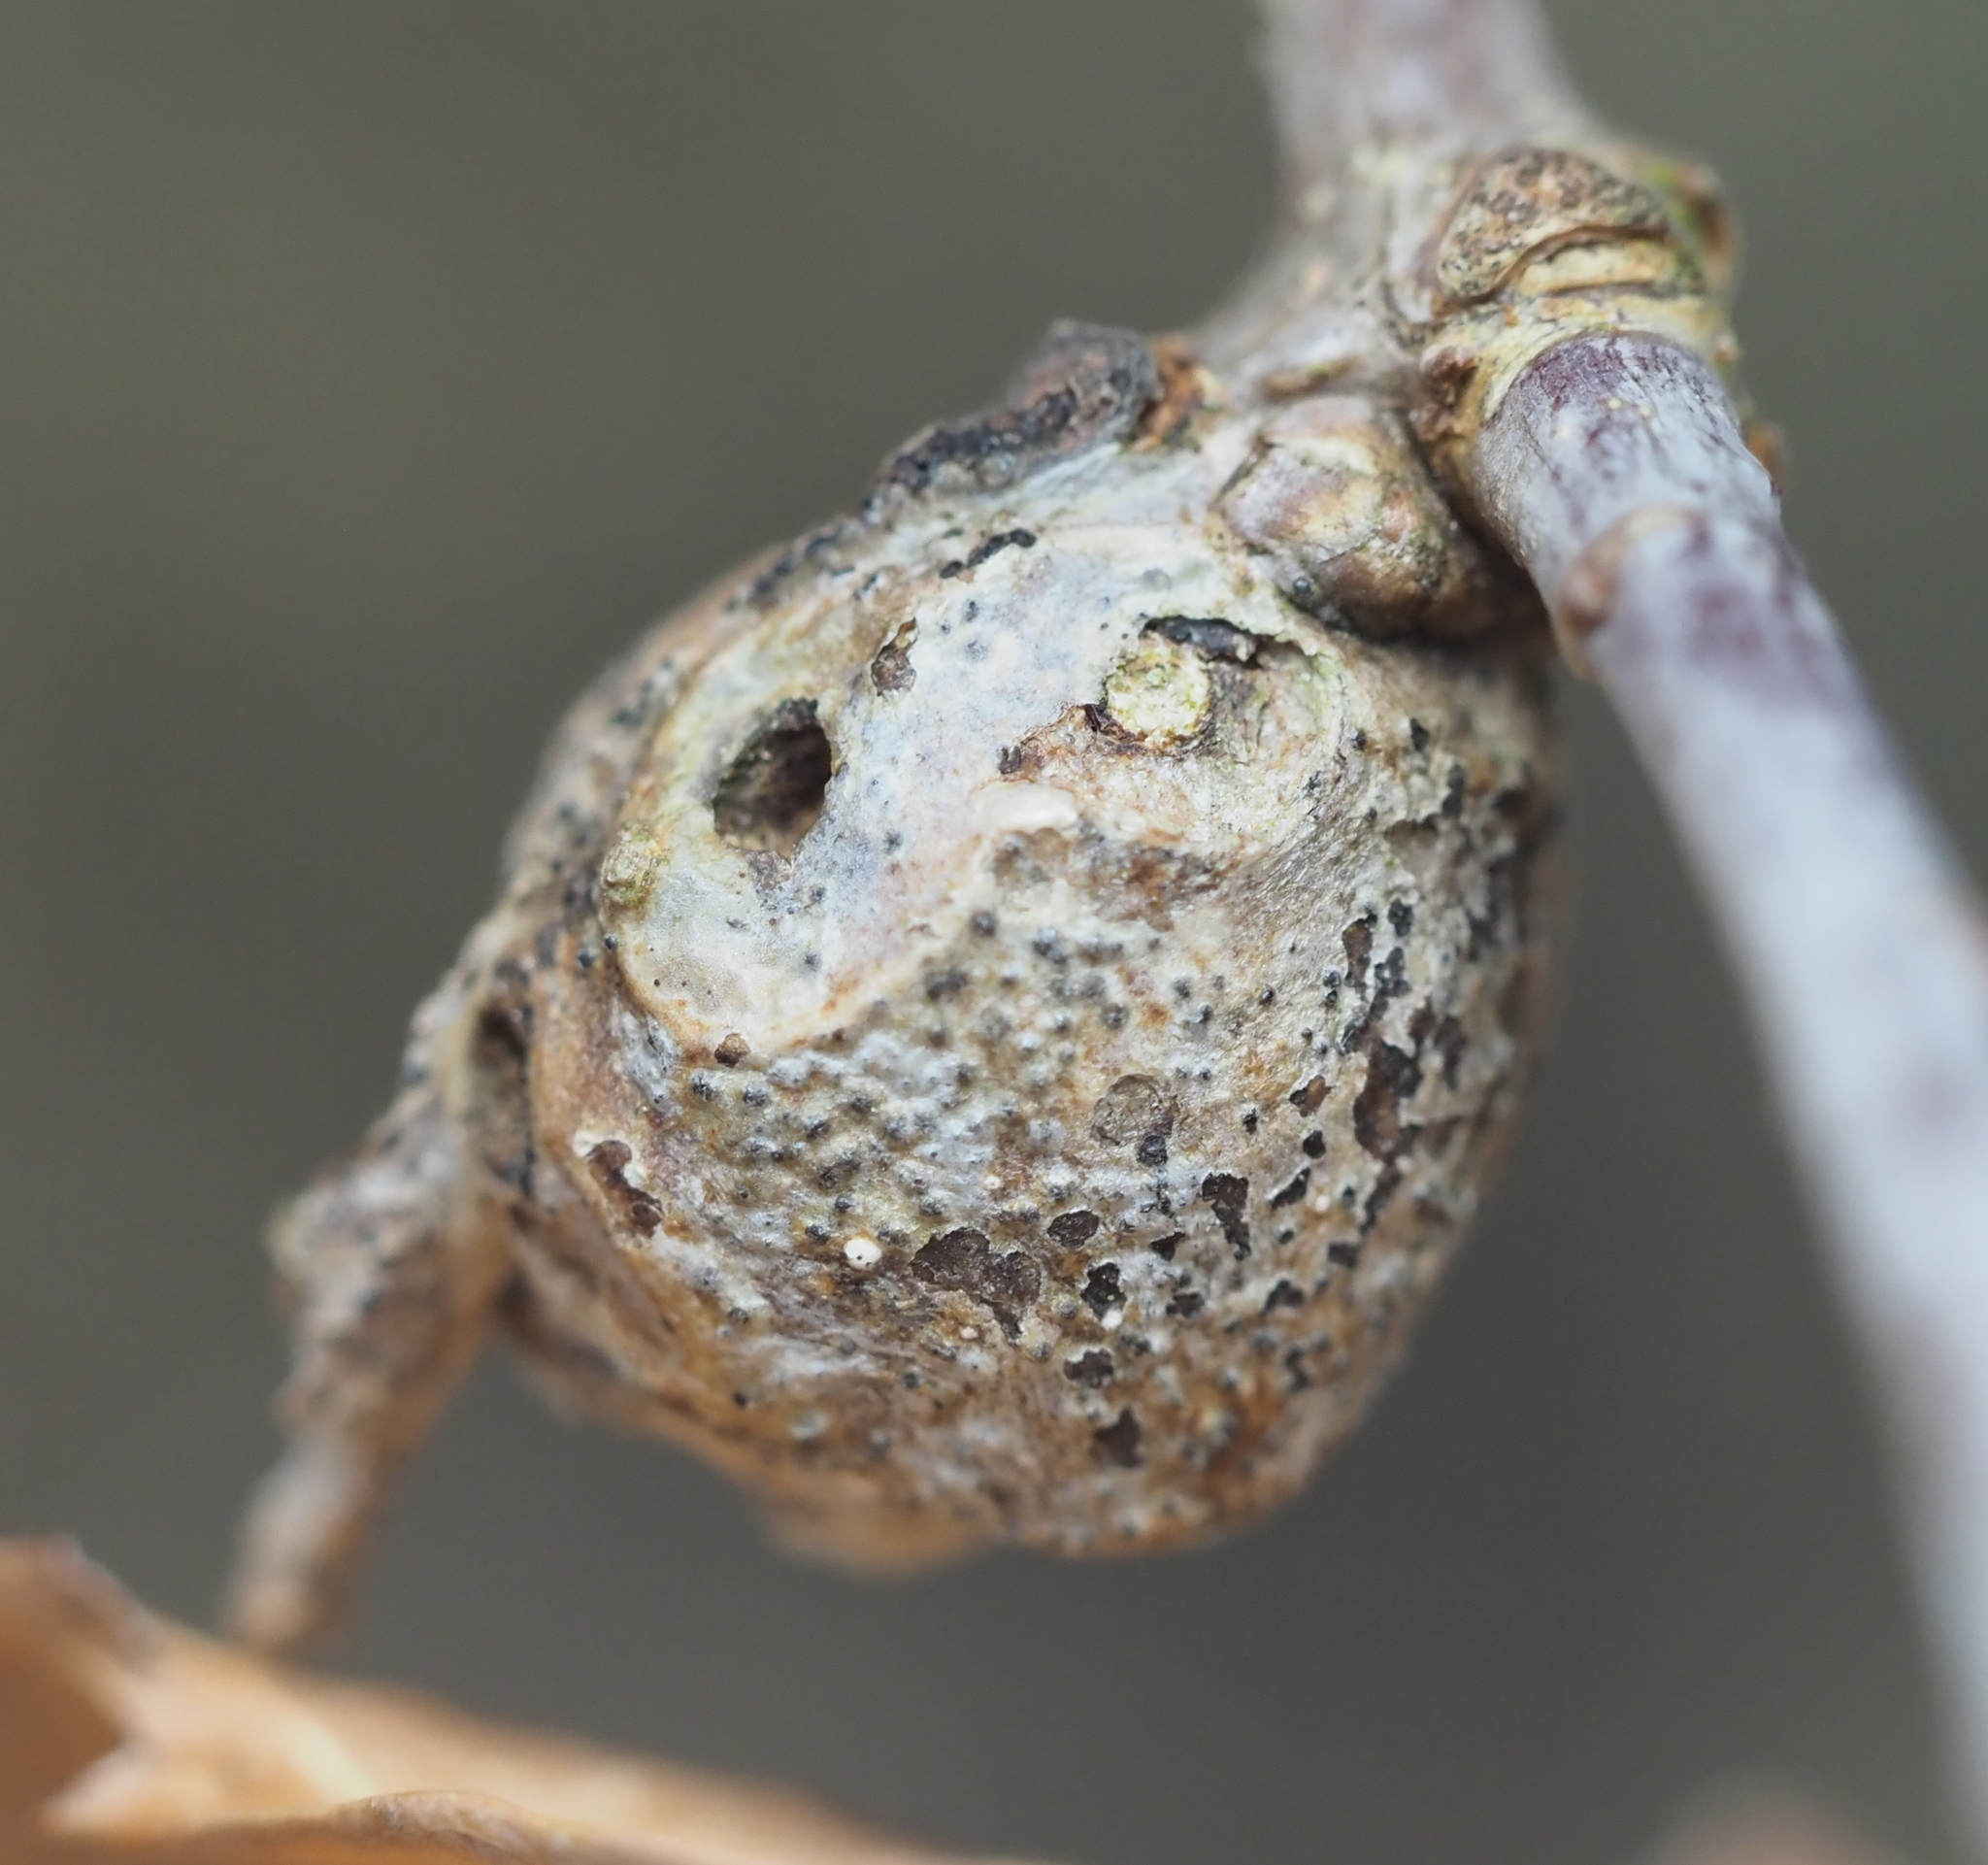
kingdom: Animalia
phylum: Arthropoda
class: Insecta
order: Hymenoptera
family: Cynipidae
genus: Andricus
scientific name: Andricus
